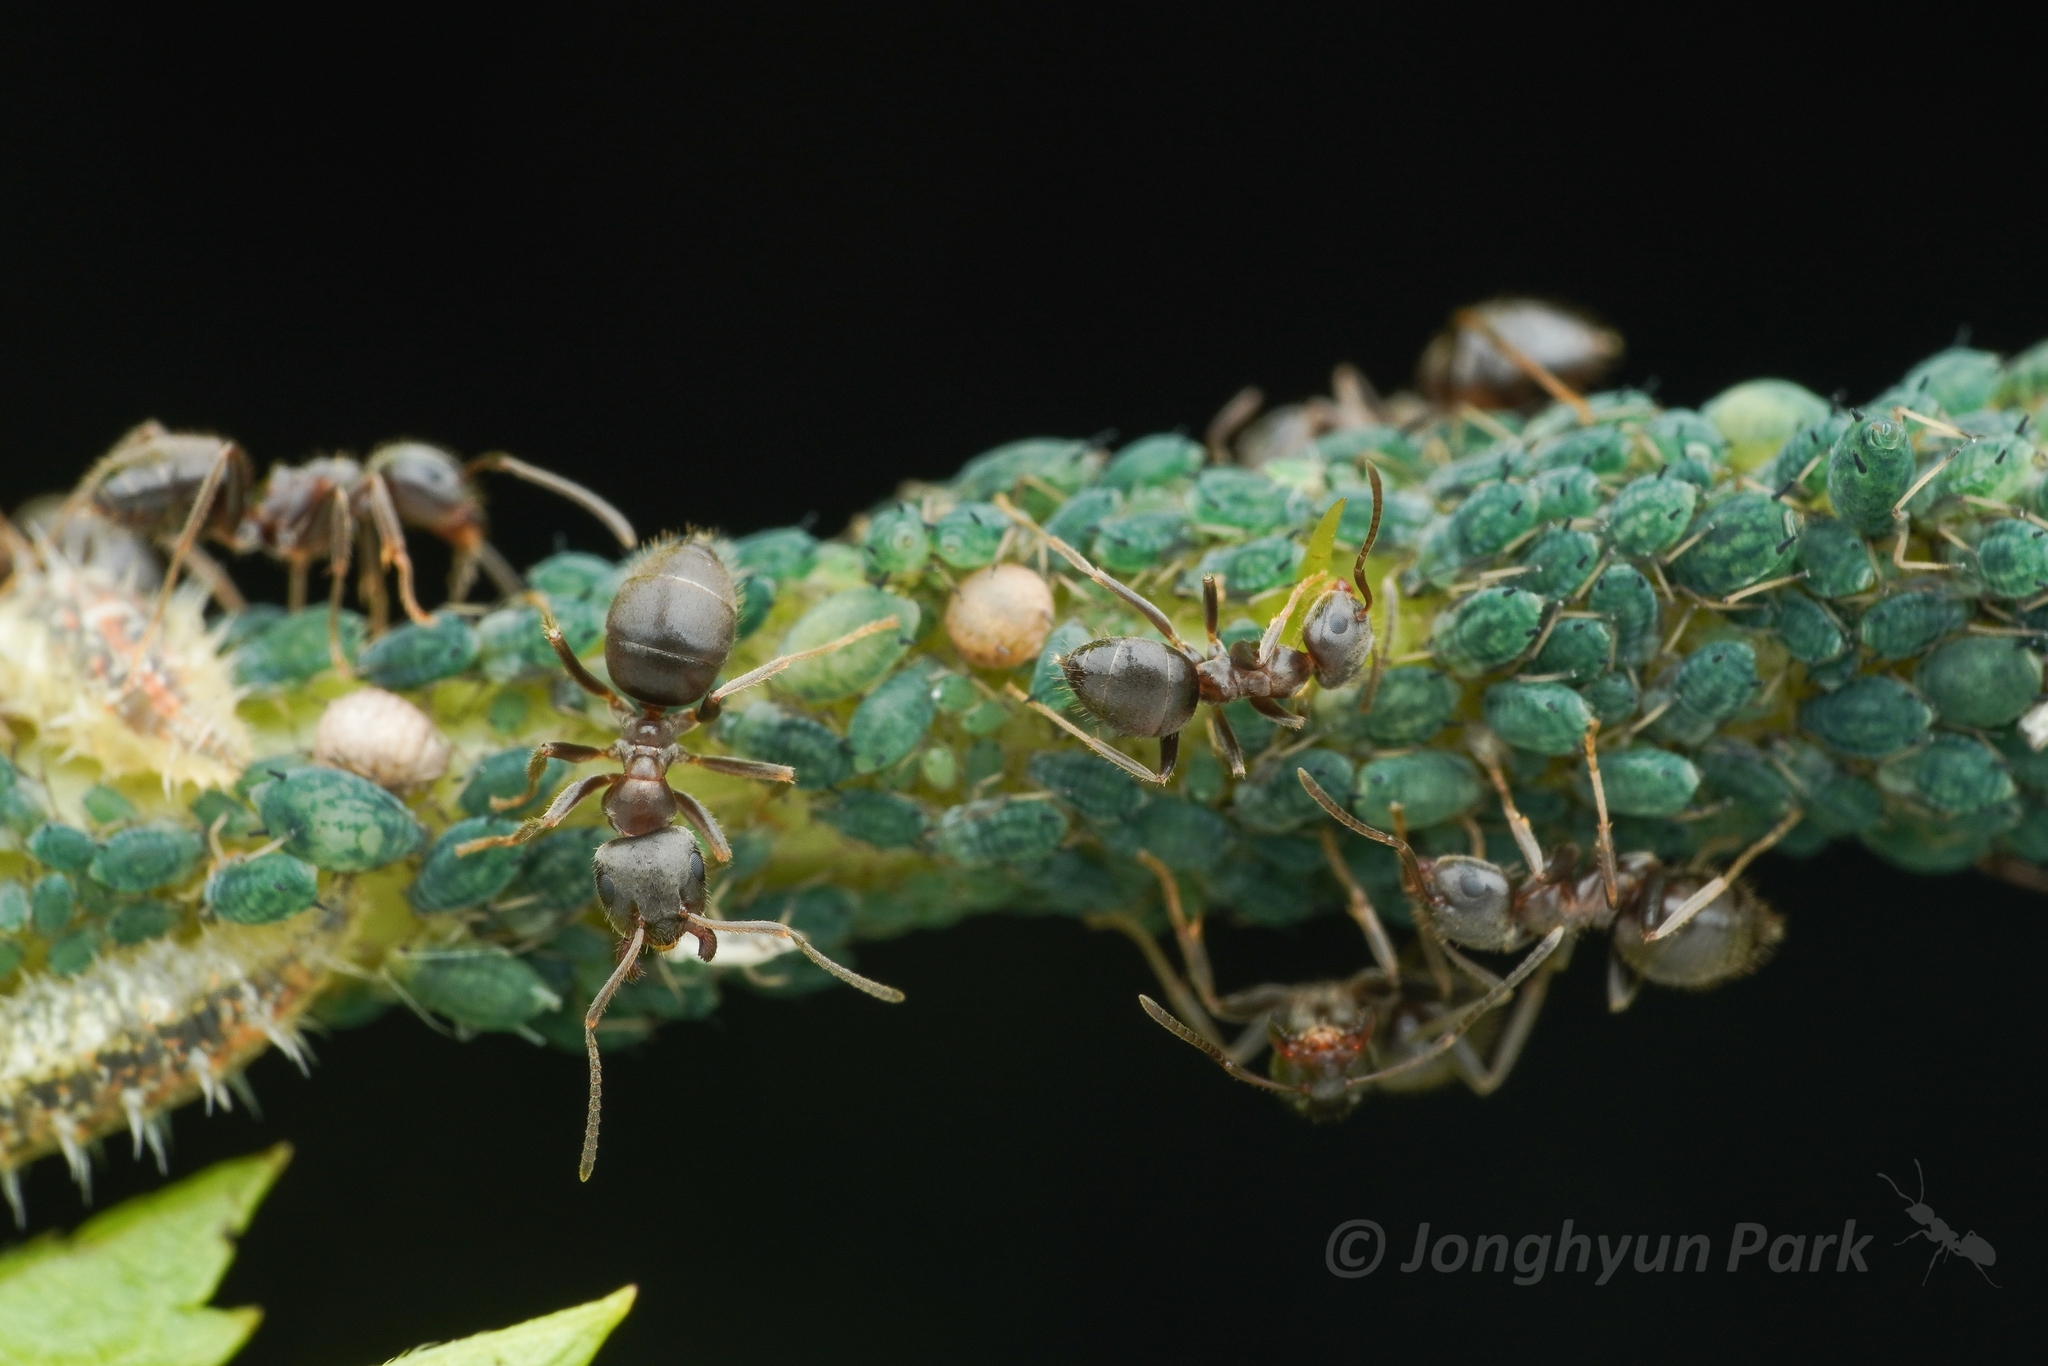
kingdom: Animalia
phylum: Arthropoda
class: Insecta
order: Hymenoptera
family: Formicidae
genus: Lasius
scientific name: Lasius japonicus
